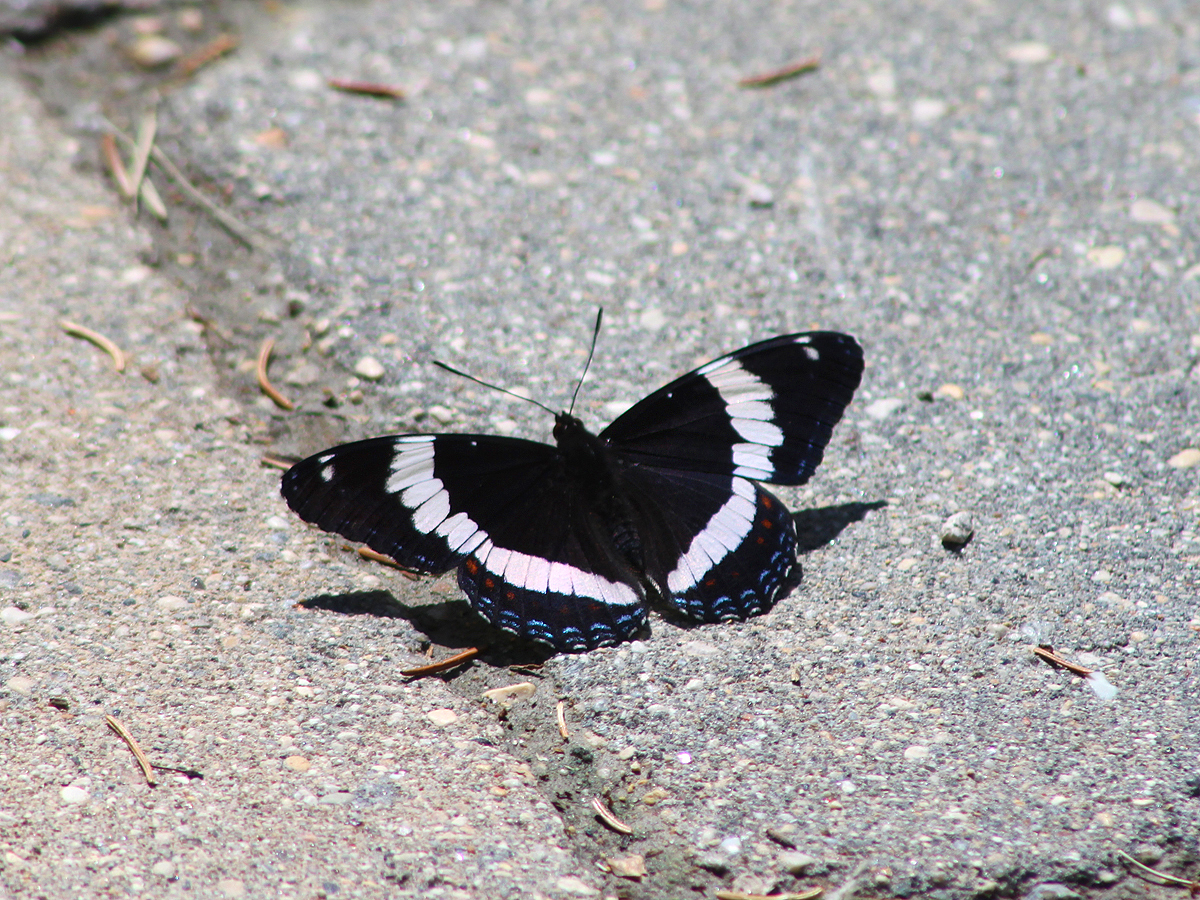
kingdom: Animalia
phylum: Arthropoda
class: Insecta
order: Lepidoptera
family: Nymphalidae
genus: Limenitis
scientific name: Limenitis arthemis
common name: Red-spotted admiral
